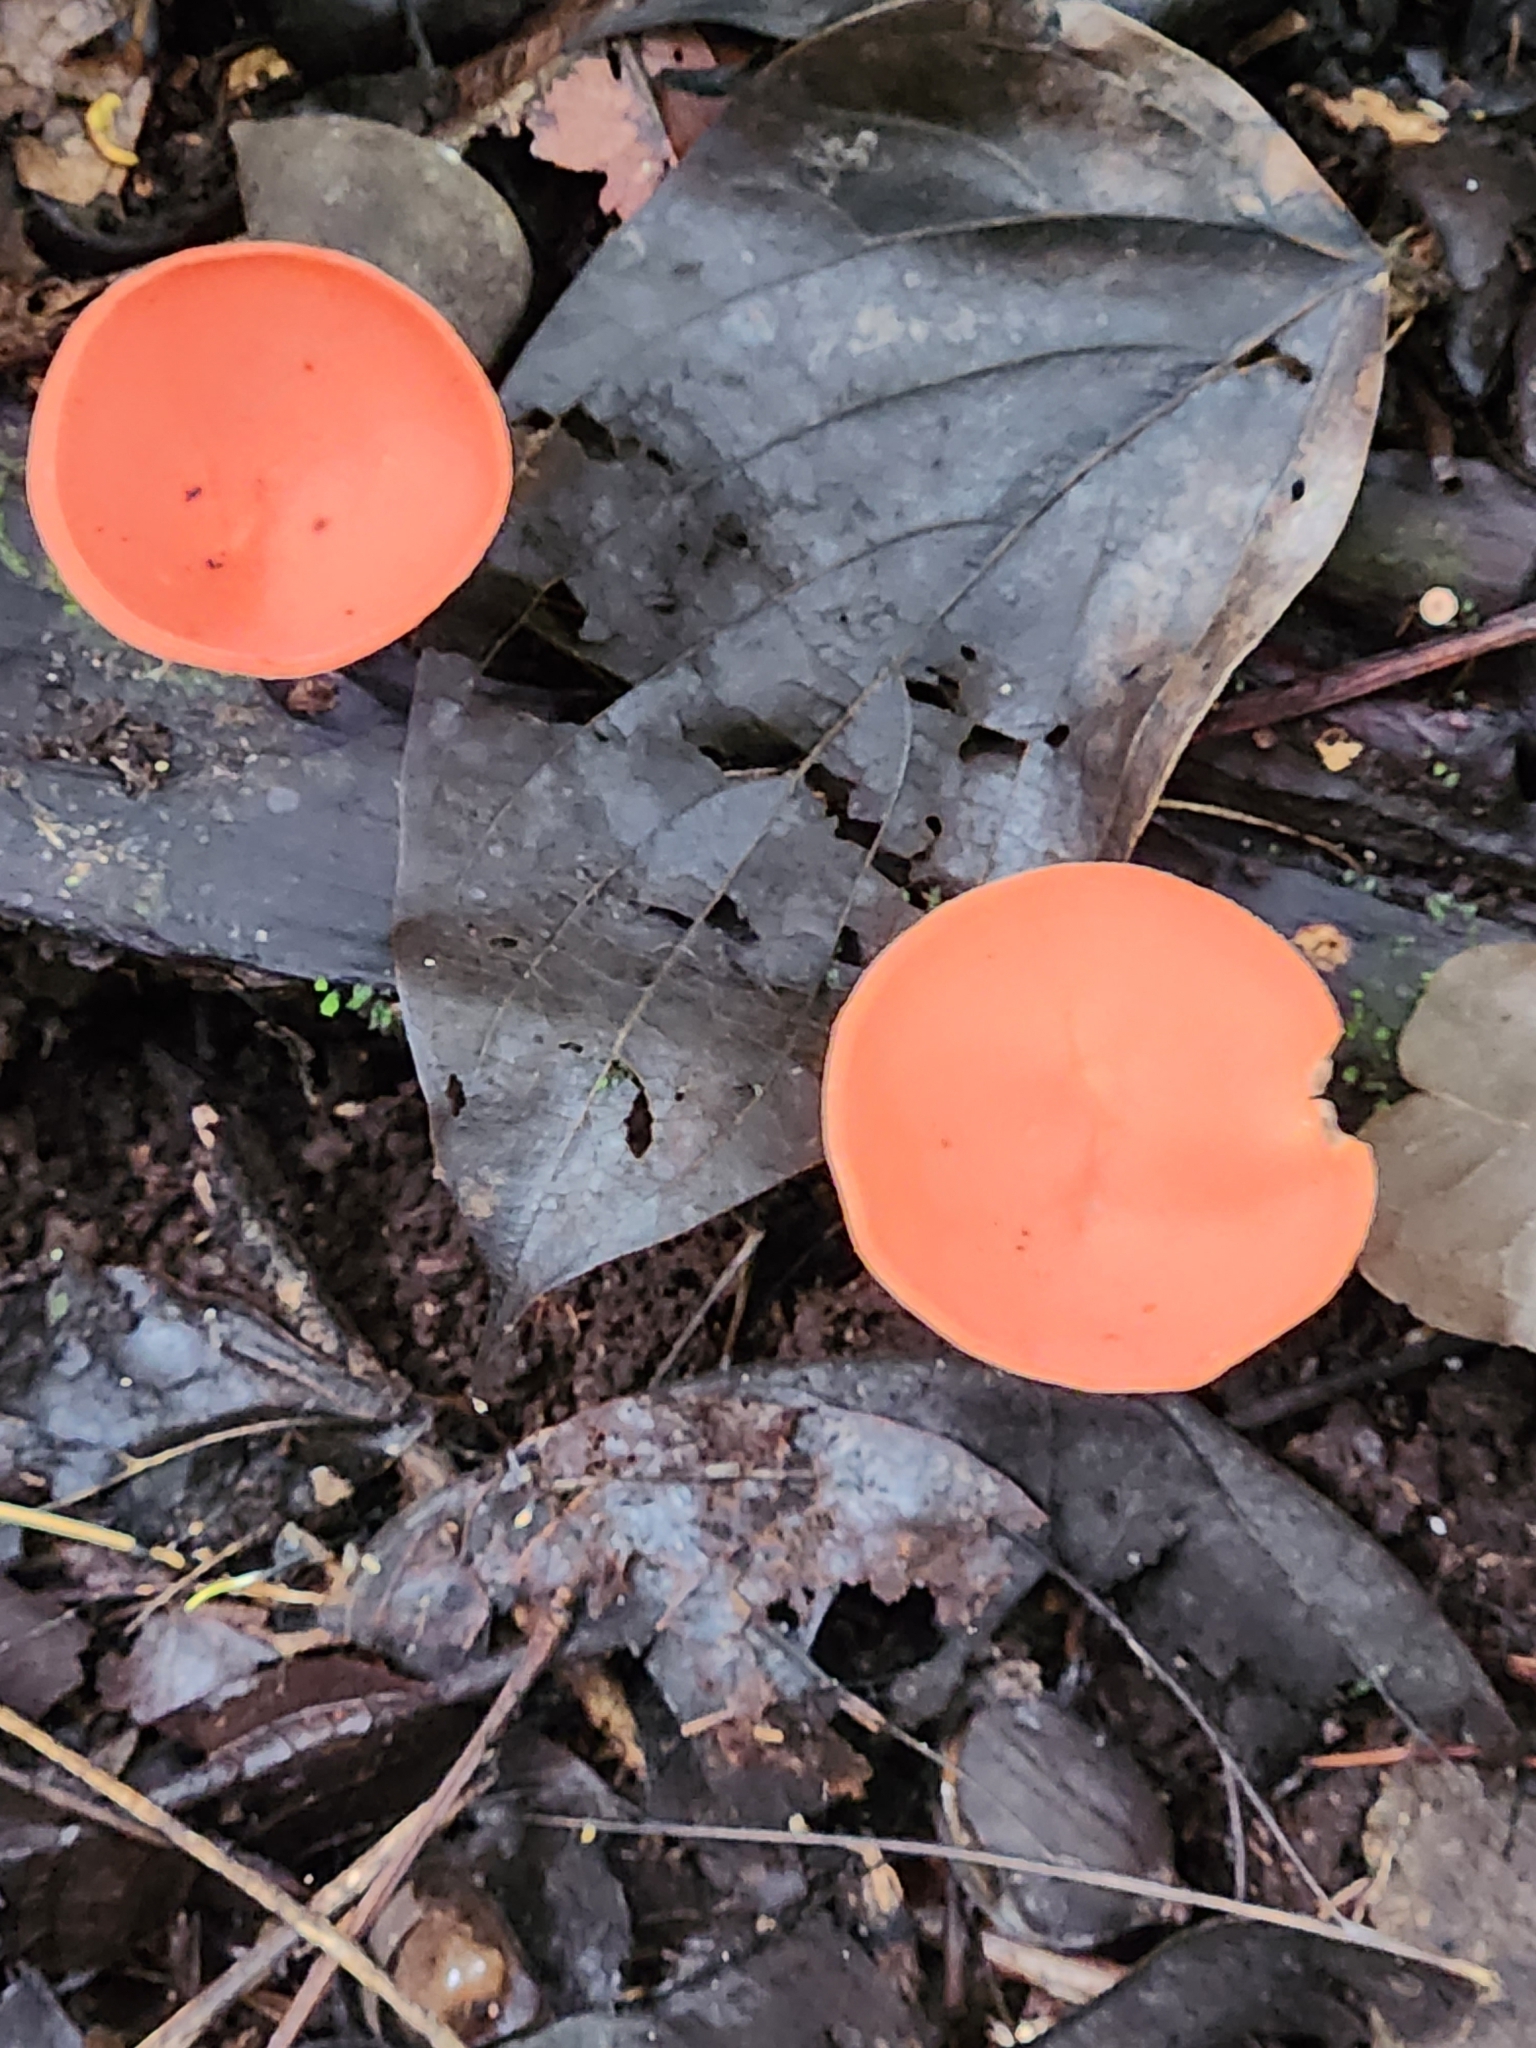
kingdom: Fungi
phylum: Ascomycota
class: Pezizomycetes
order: Pezizales
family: Sarcoscyphaceae
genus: Cookeina
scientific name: Cookeina speciosa
